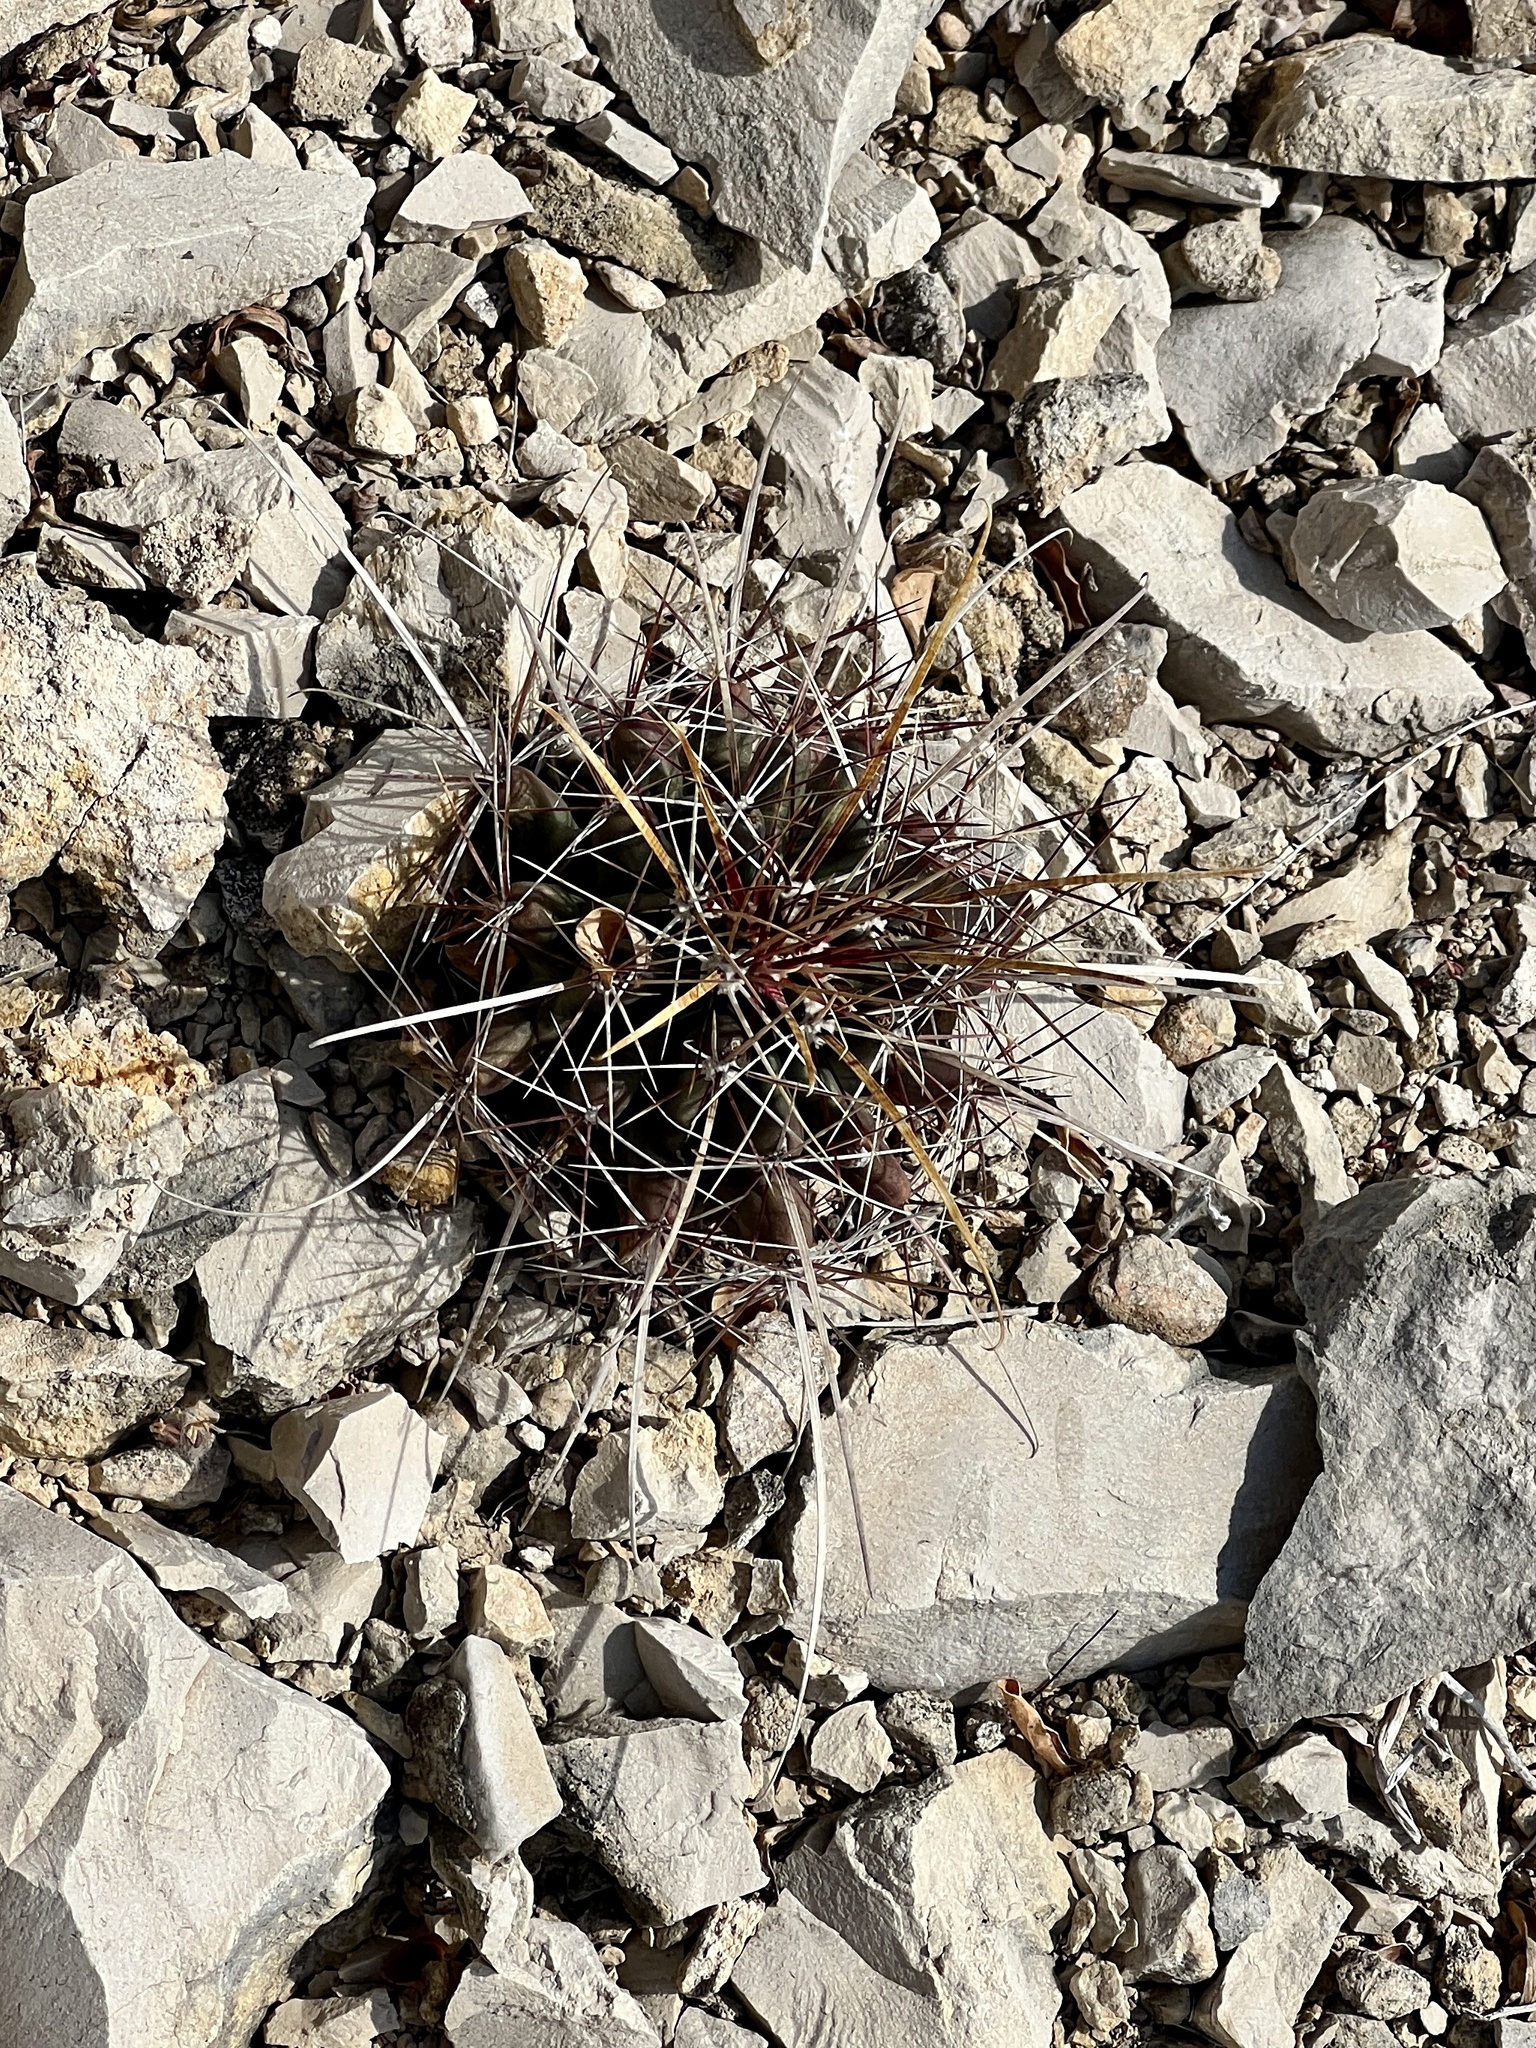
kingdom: Plantae
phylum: Tracheophyta
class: Magnoliopsida
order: Caryophyllales
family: Cactaceae
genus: Bisnaga
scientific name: Bisnaga hamatacantha
